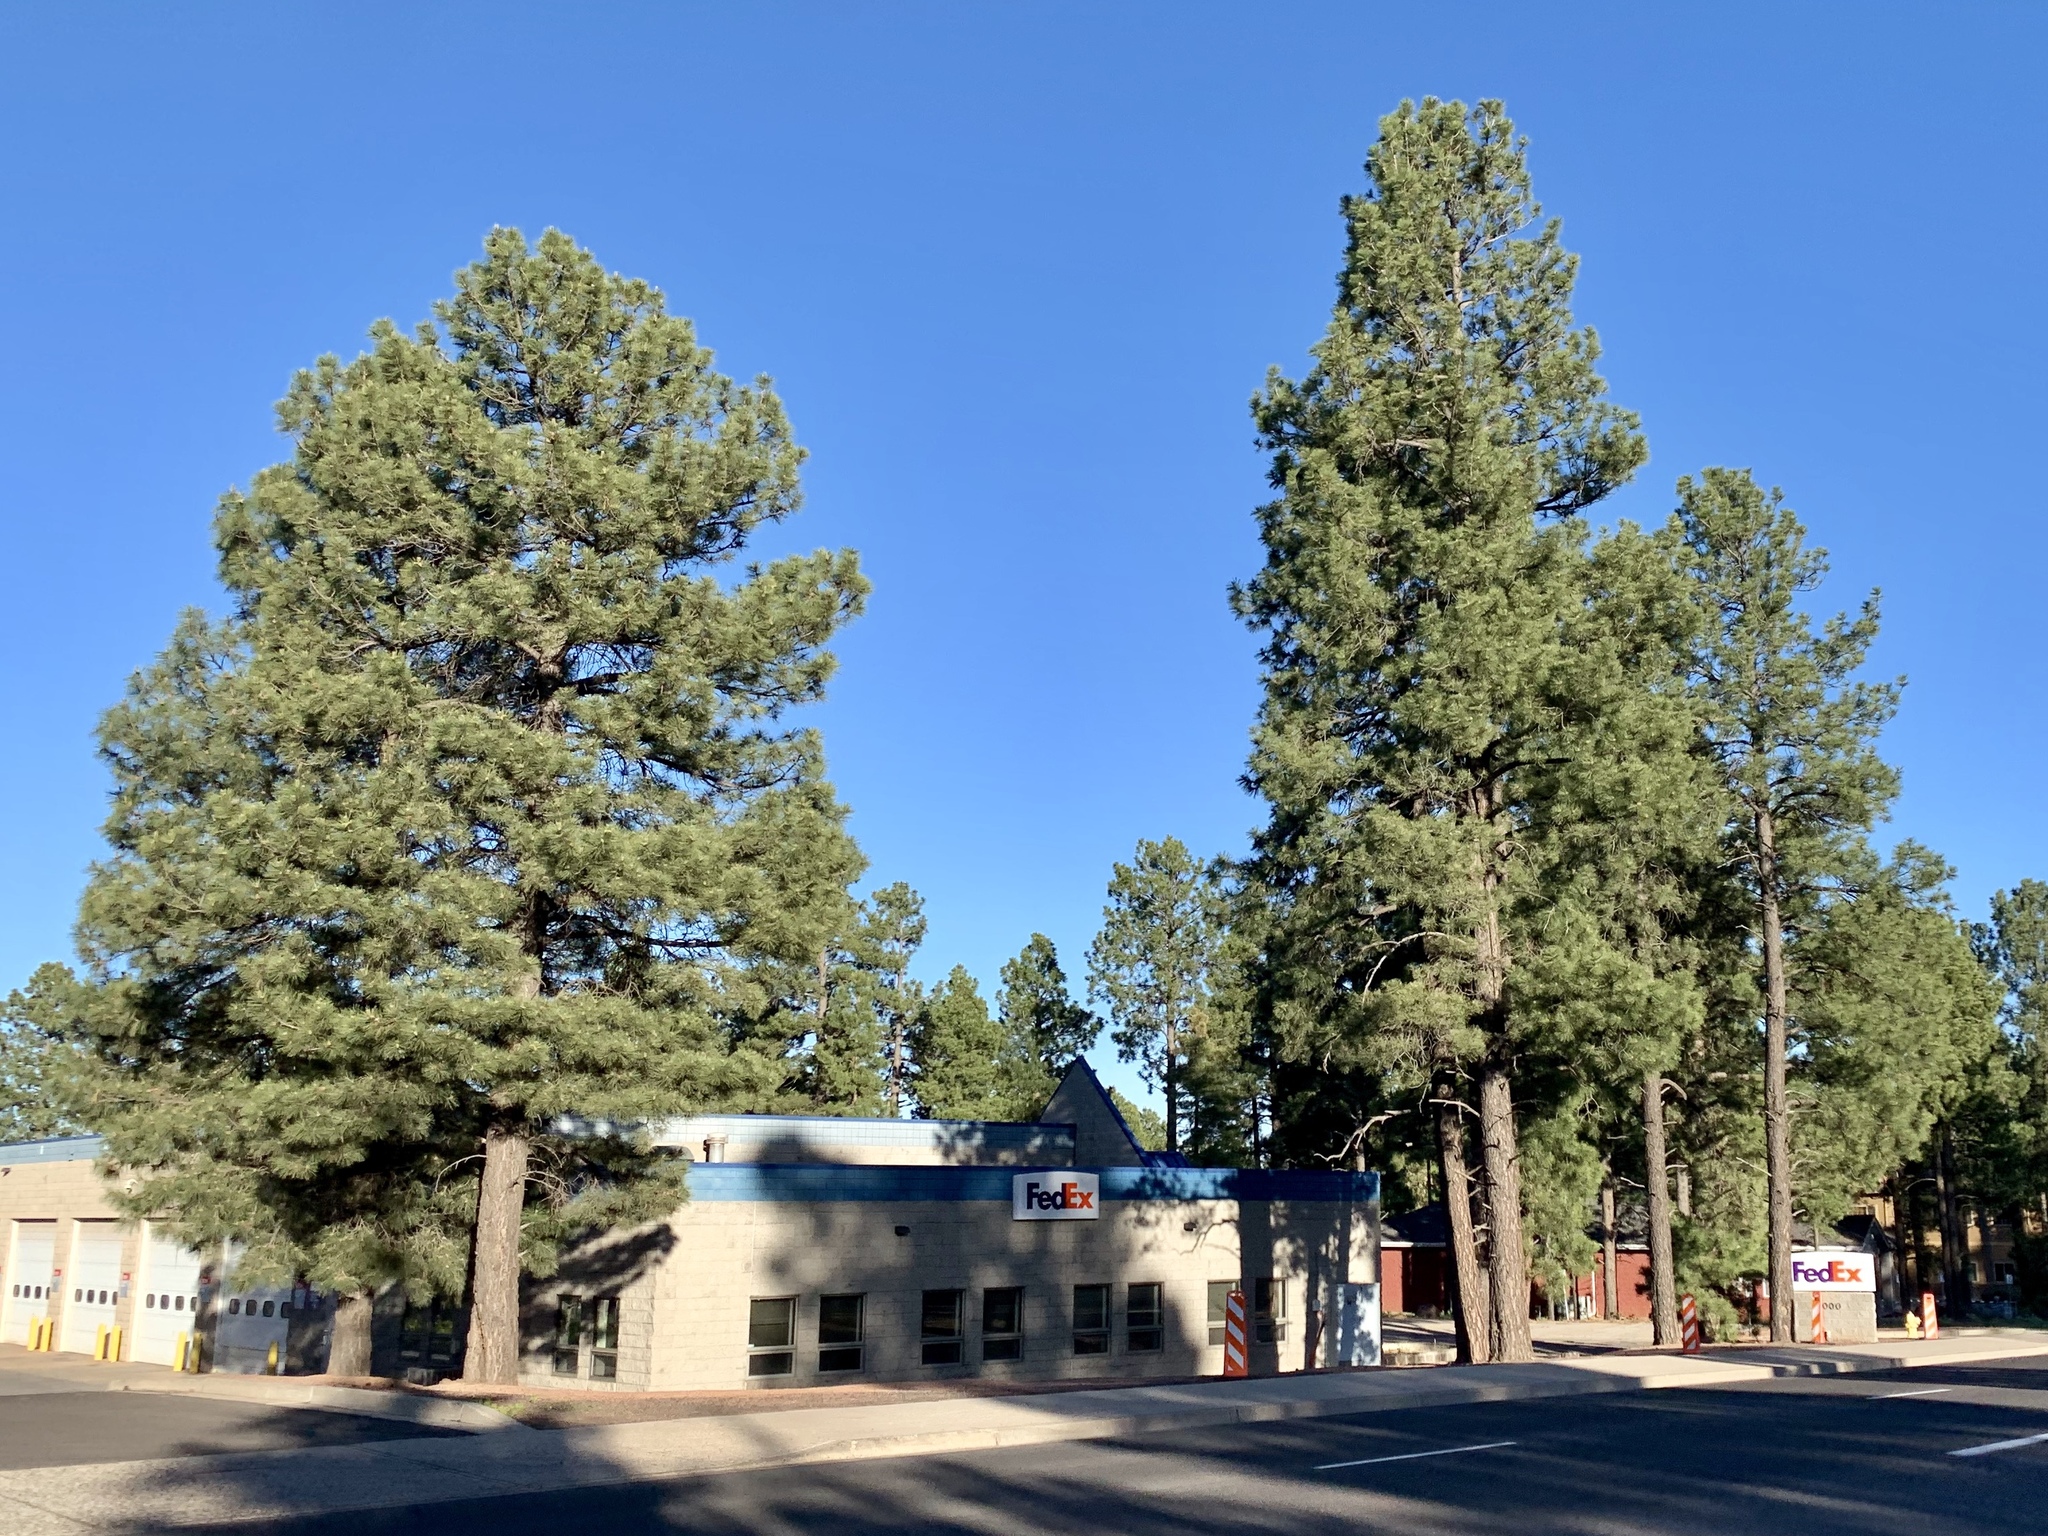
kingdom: Plantae
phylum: Tracheophyta
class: Pinopsida
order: Pinales
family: Pinaceae
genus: Pinus
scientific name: Pinus ponderosa
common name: Western yellow-pine
